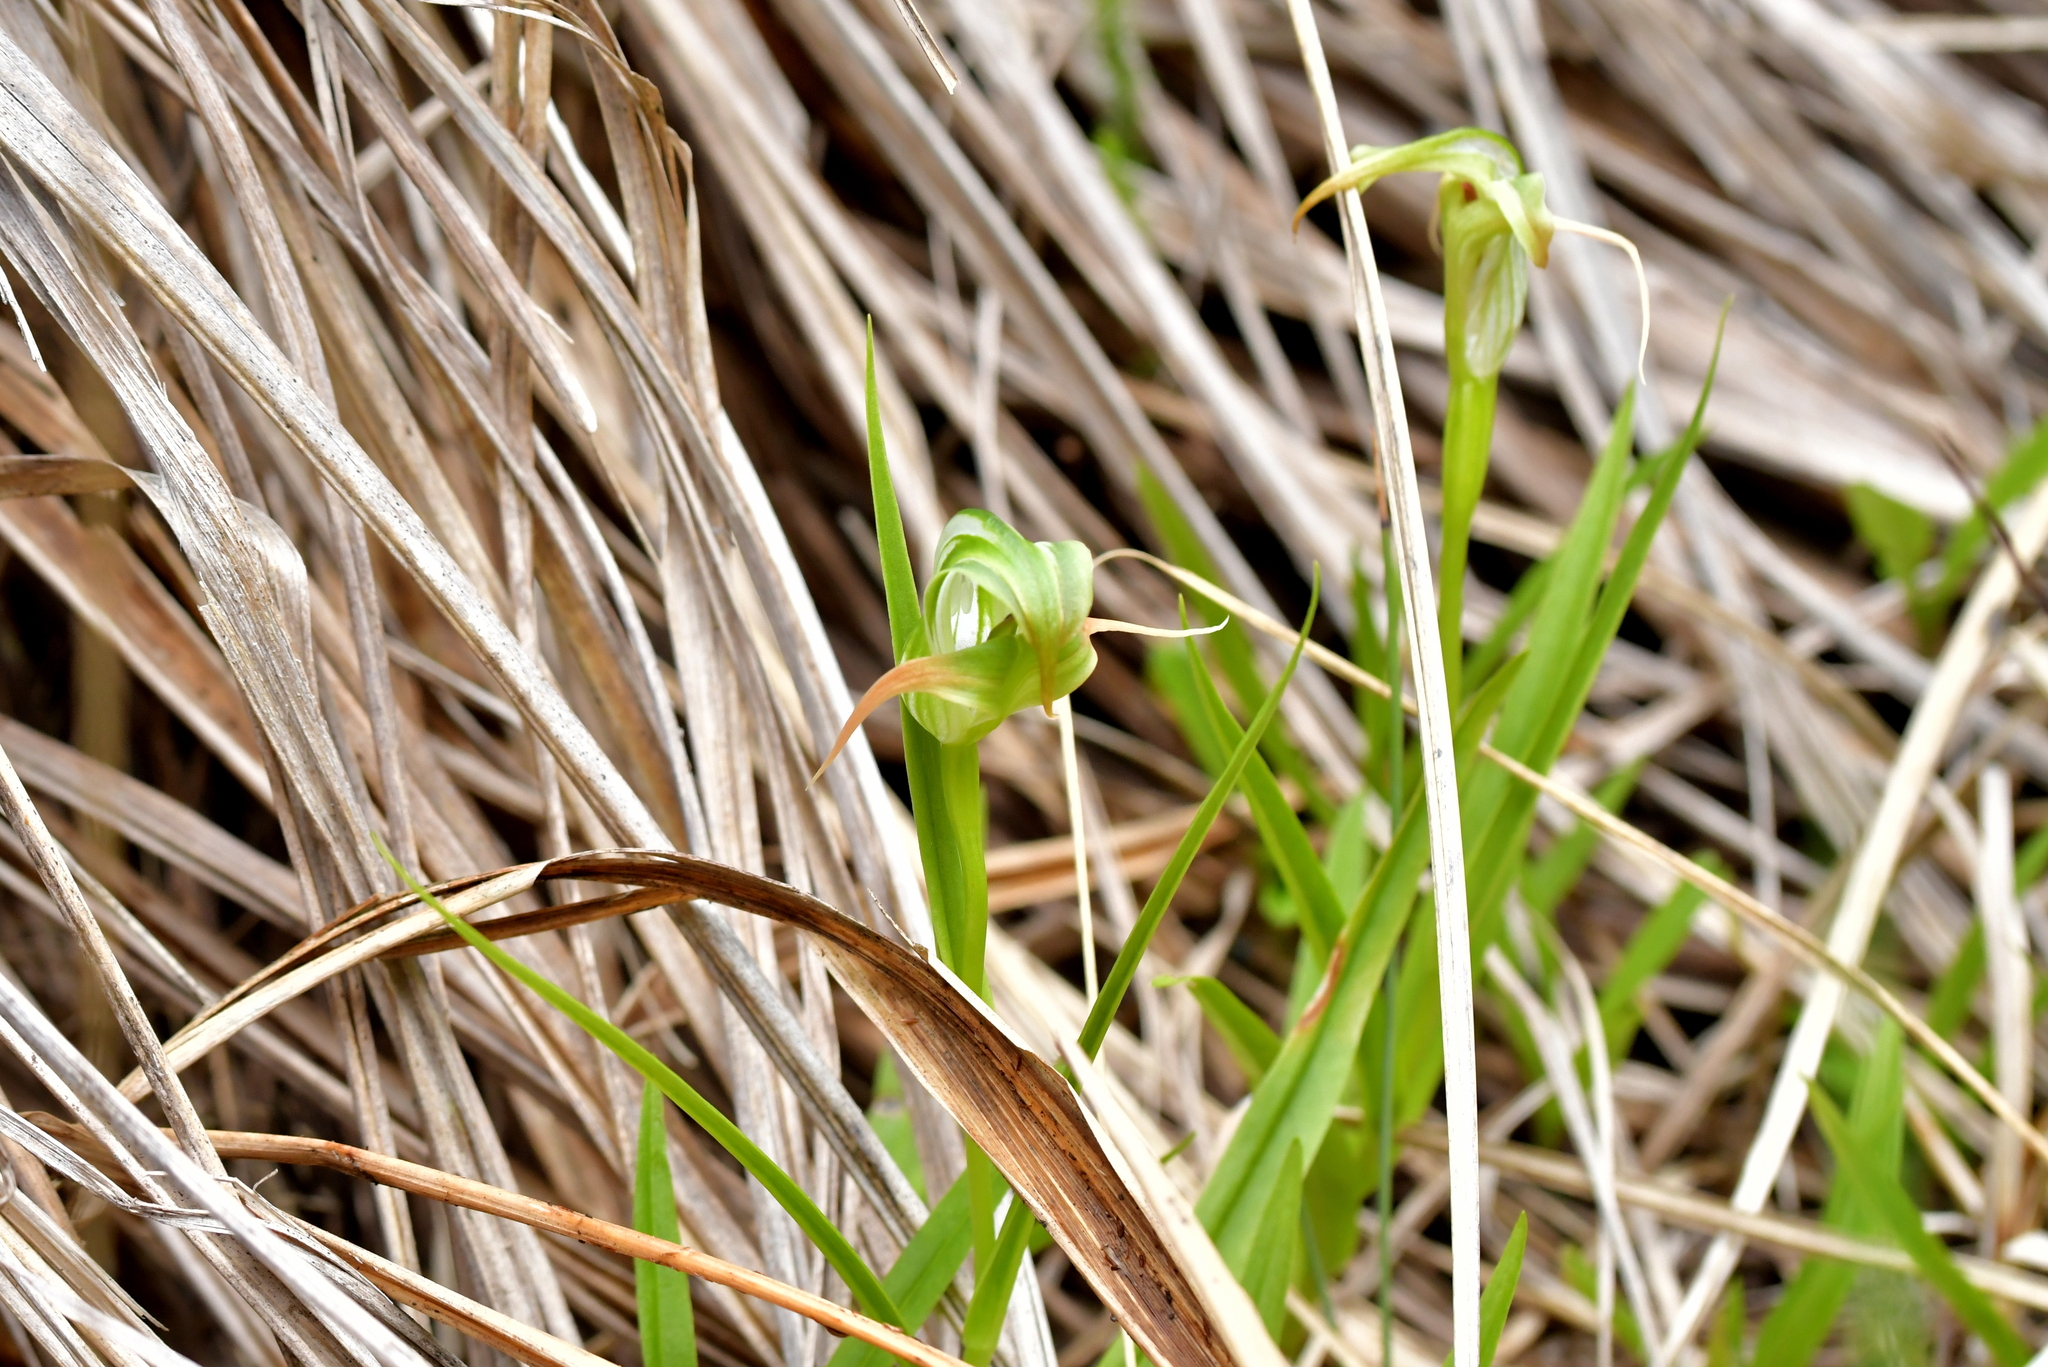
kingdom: Plantae
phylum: Tracheophyta
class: Liliopsida
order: Asparagales
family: Orchidaceae
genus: Pterostylis
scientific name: Pterostylis patens
